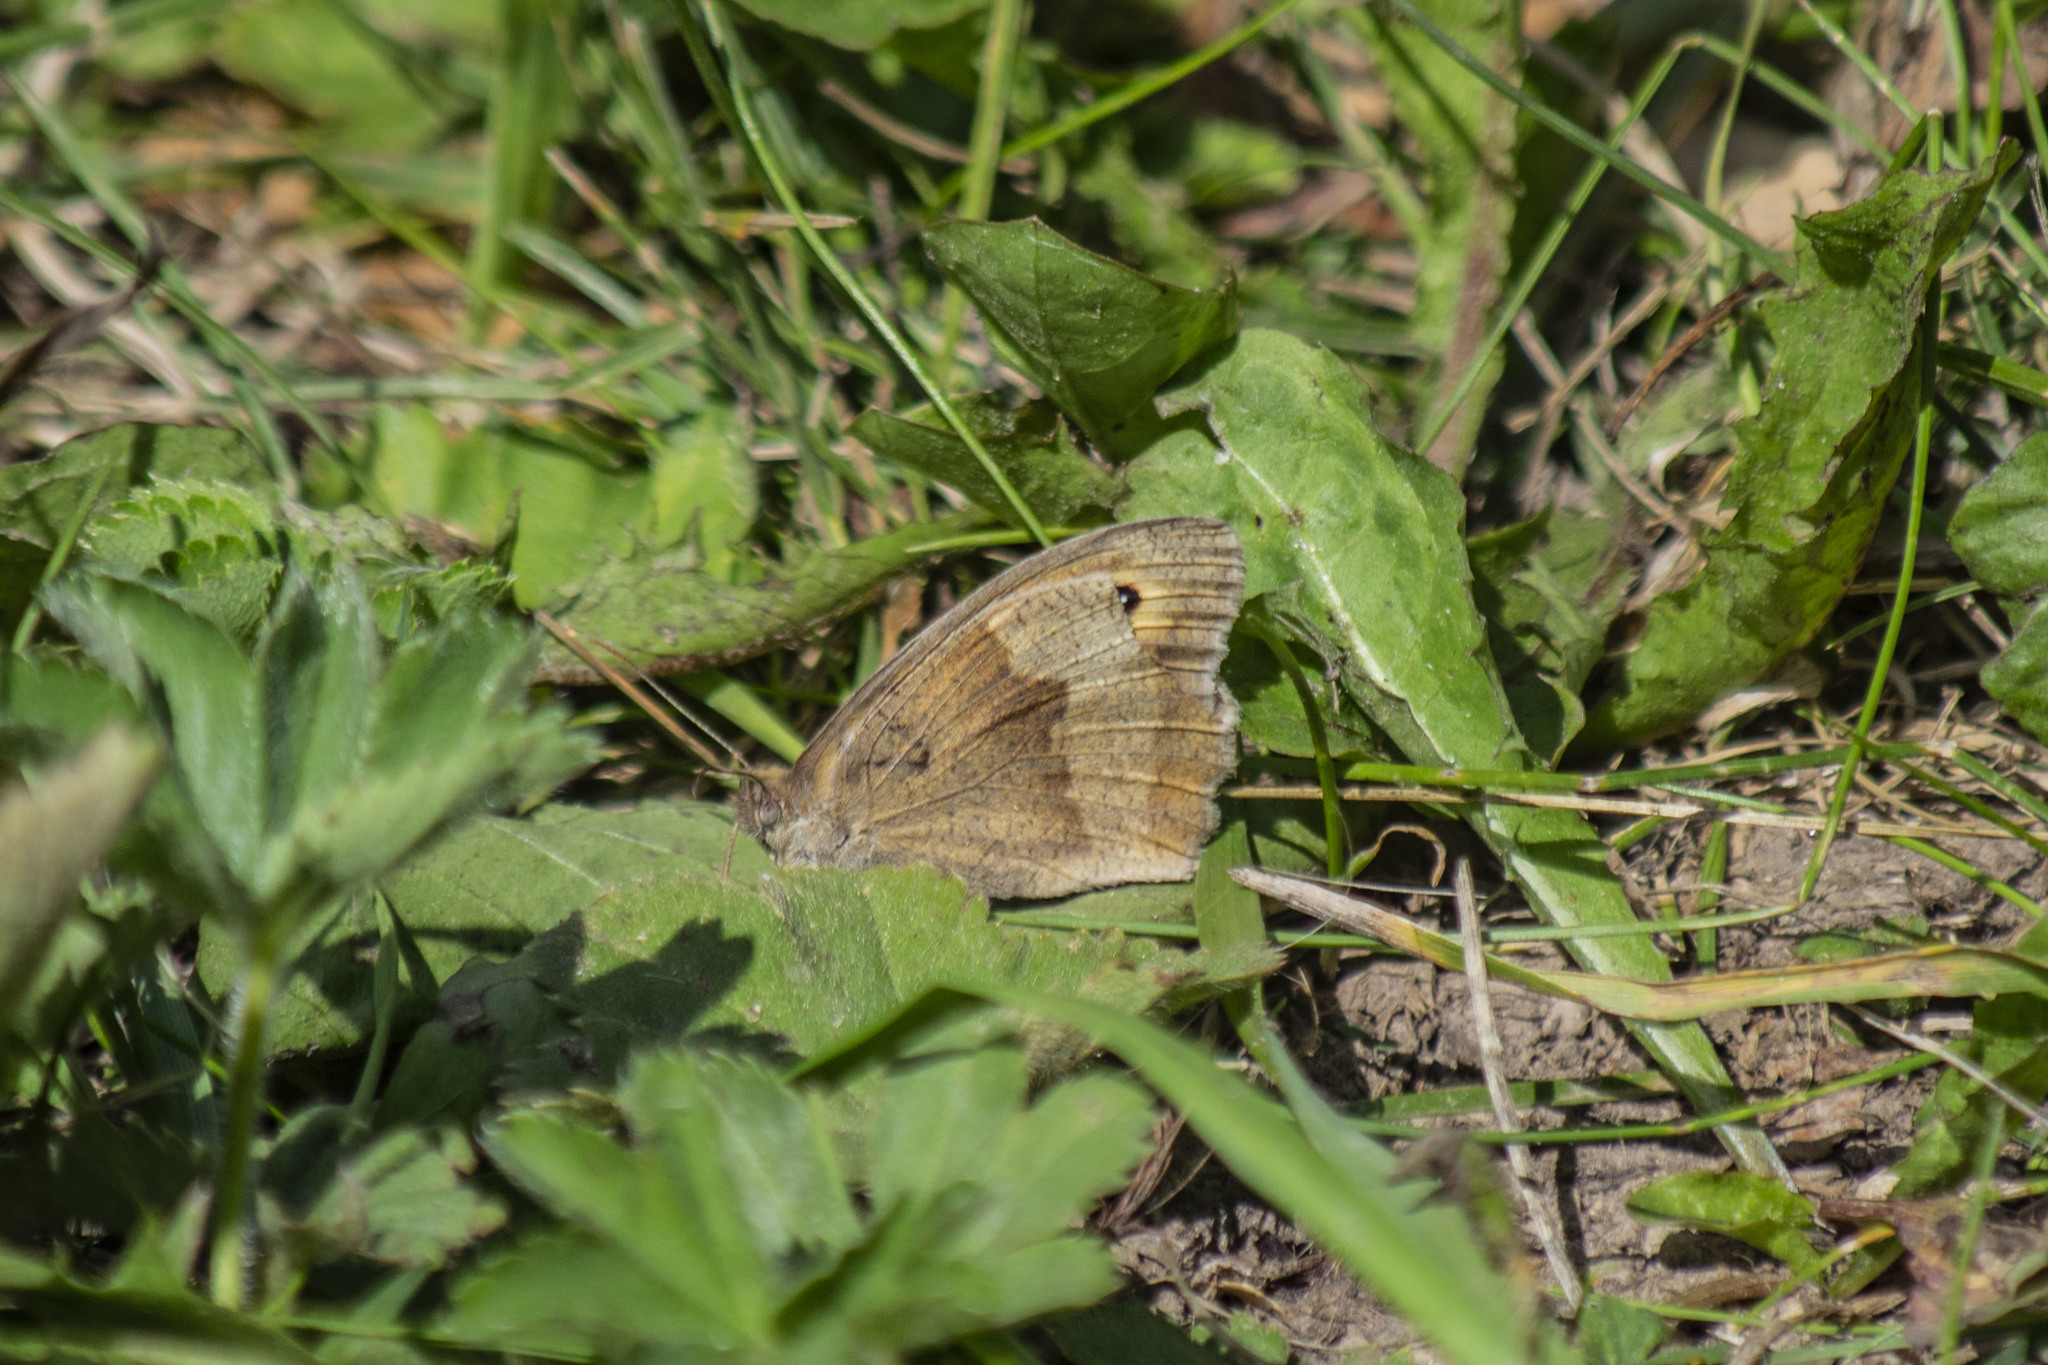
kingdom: Animalia
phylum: Arthropoda
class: Insecta
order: Lepidoptera
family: Nymphalidae
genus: Maniola
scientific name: Maniola jurtina
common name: Meadow brown
